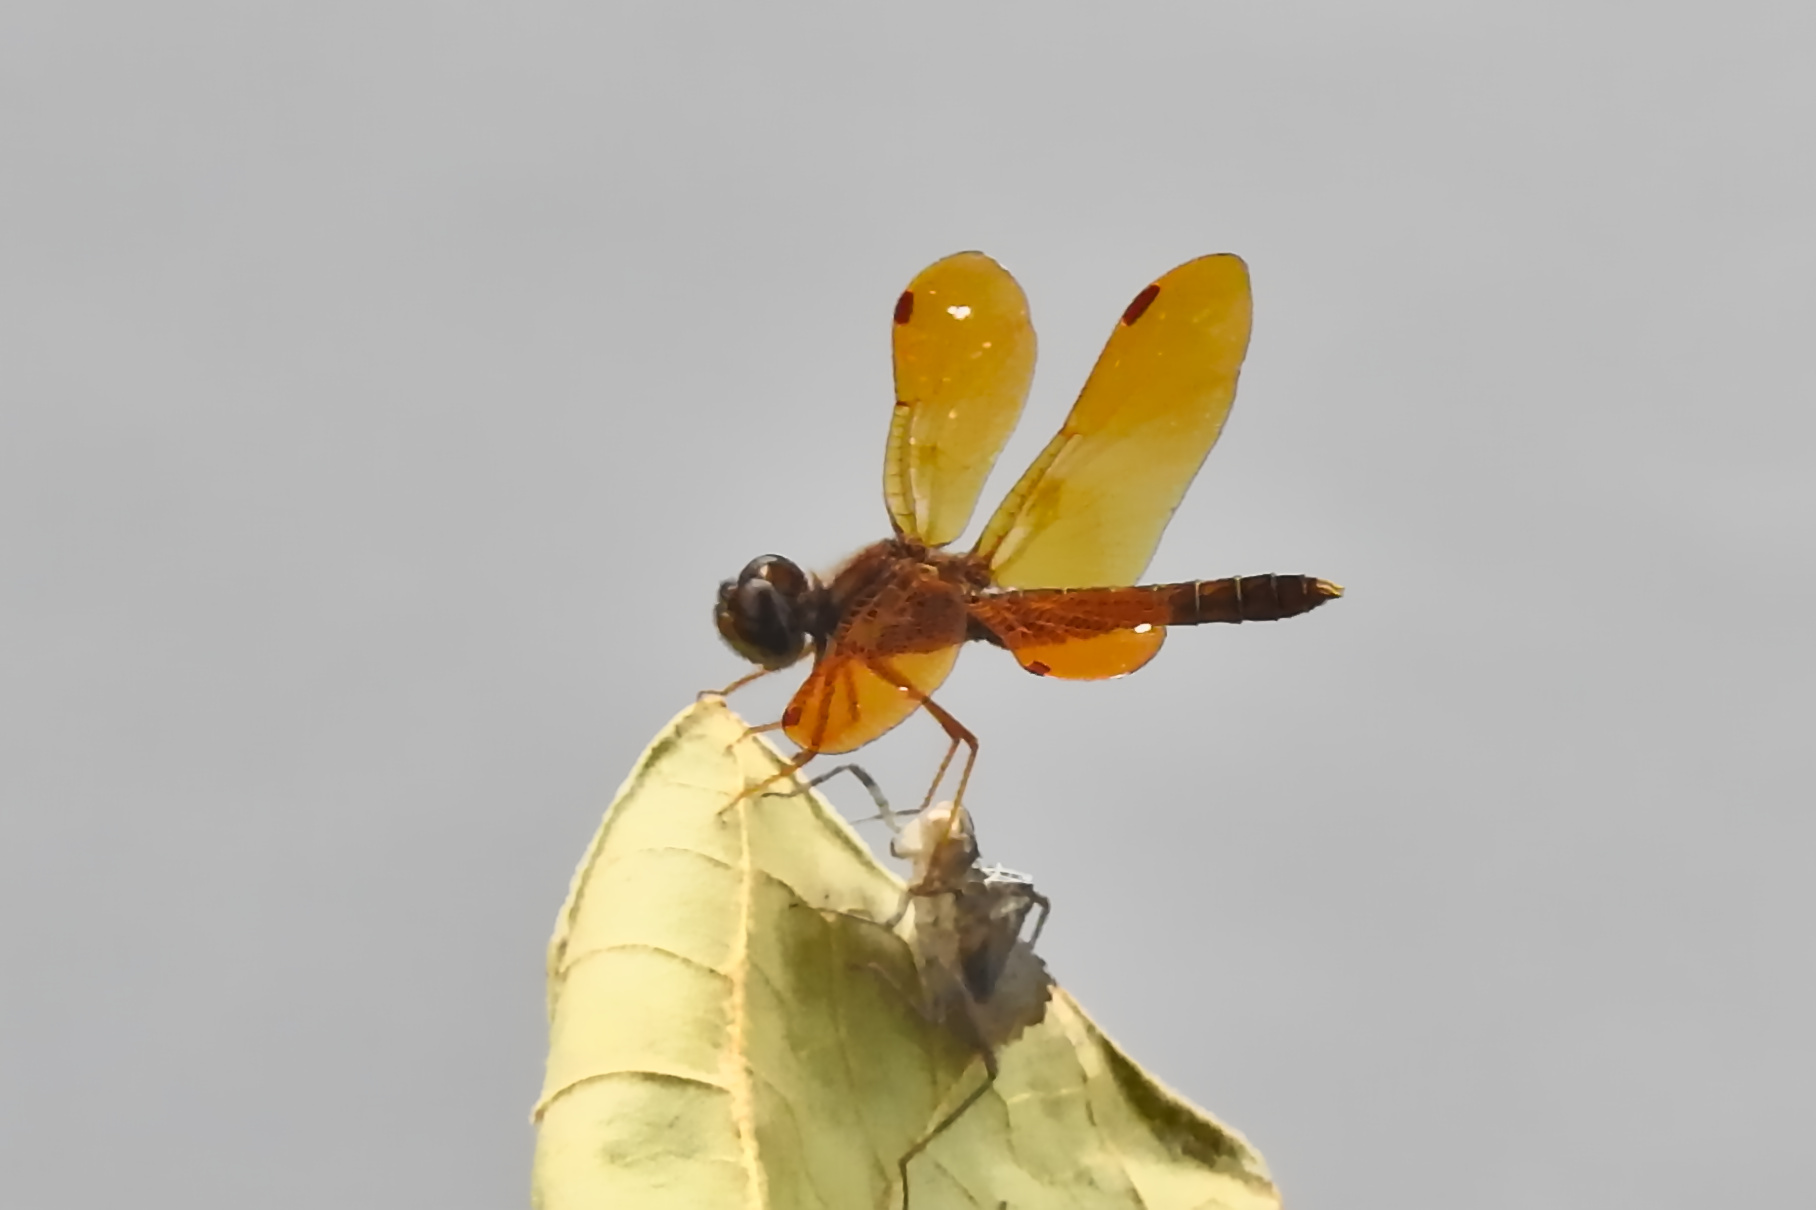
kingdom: Animalia
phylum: Arthropoda
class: Insecta
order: Odonata
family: Libellulidae
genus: Perithemis
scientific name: Perithemis tenera
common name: Eastern amberwing
